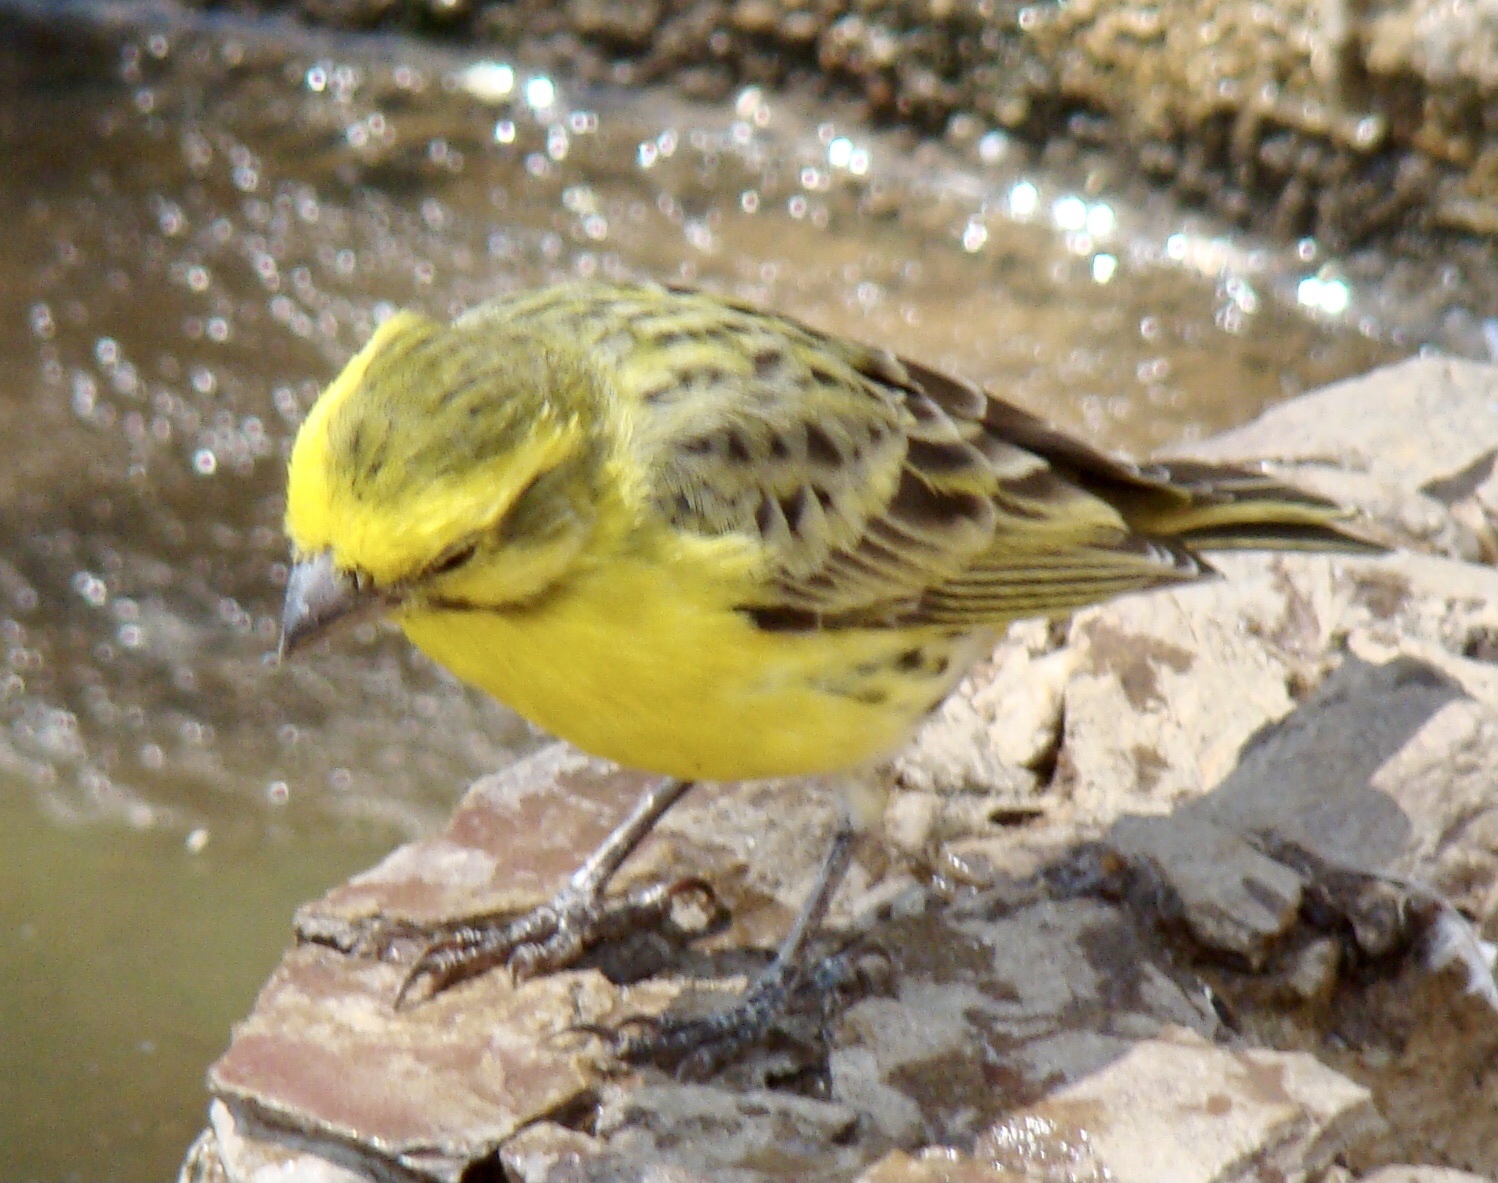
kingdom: Animalia
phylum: Chordata
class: Aves
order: Passeriformes
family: Fringillidae
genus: Crithagra
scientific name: Crithagra dorsostriata
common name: White-bellied canary
